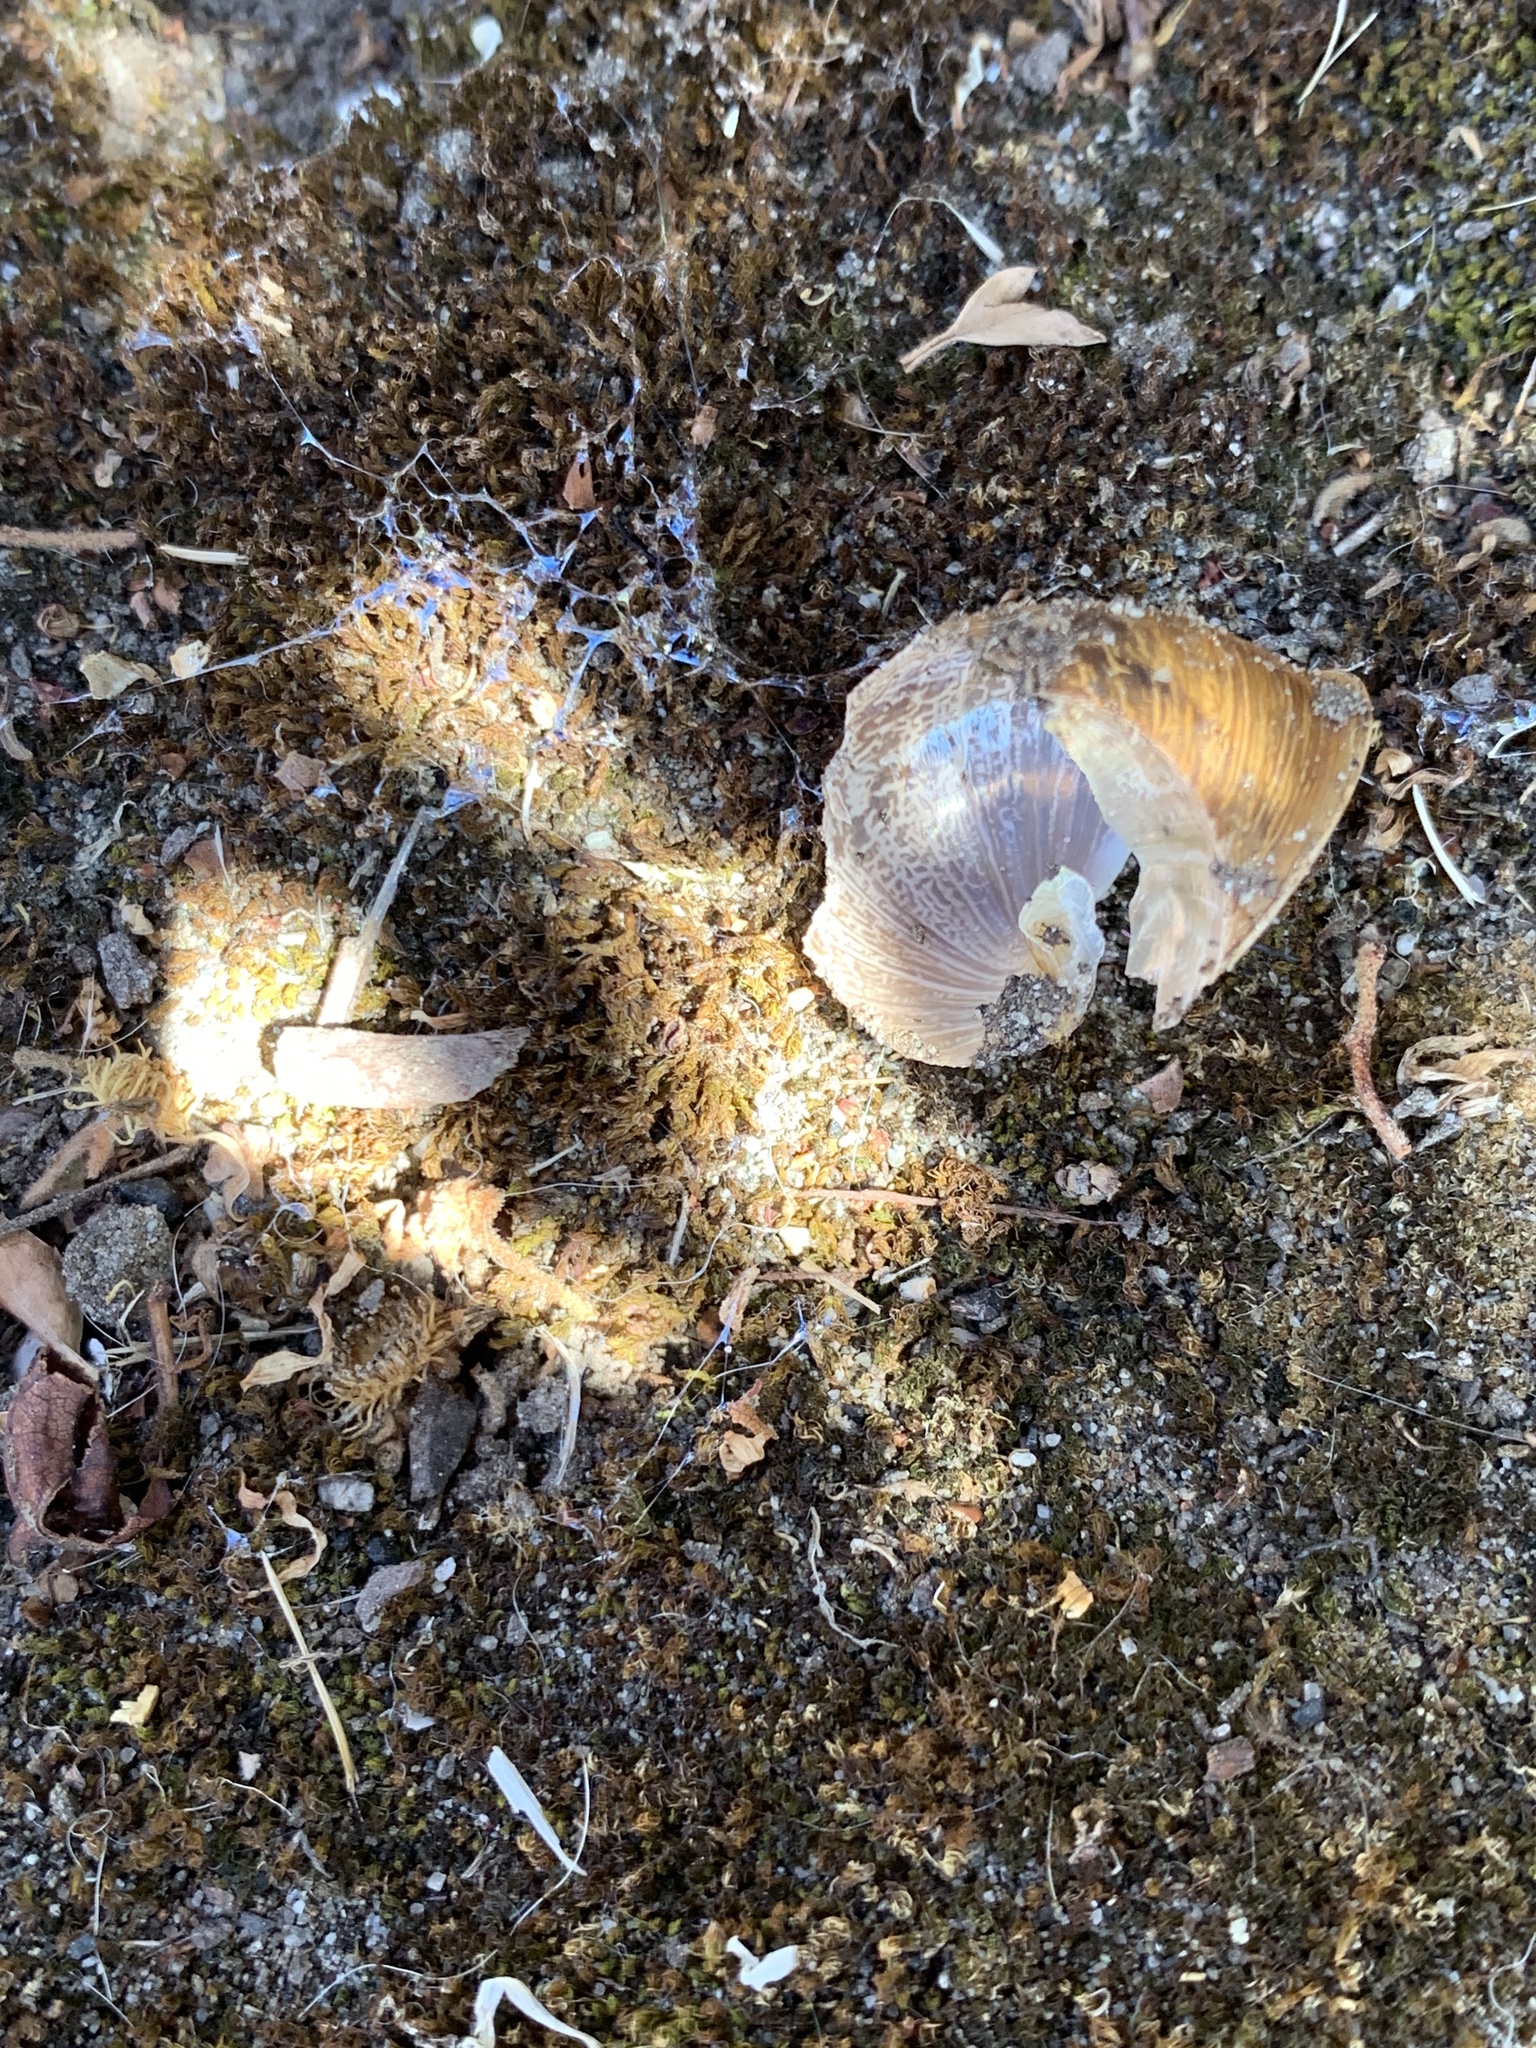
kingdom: Animalia
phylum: Mollusca
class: Gastropoda
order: Stylommatophora
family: Helicidae
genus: Cornu
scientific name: Cornu aspersum
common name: Brown garden snail
